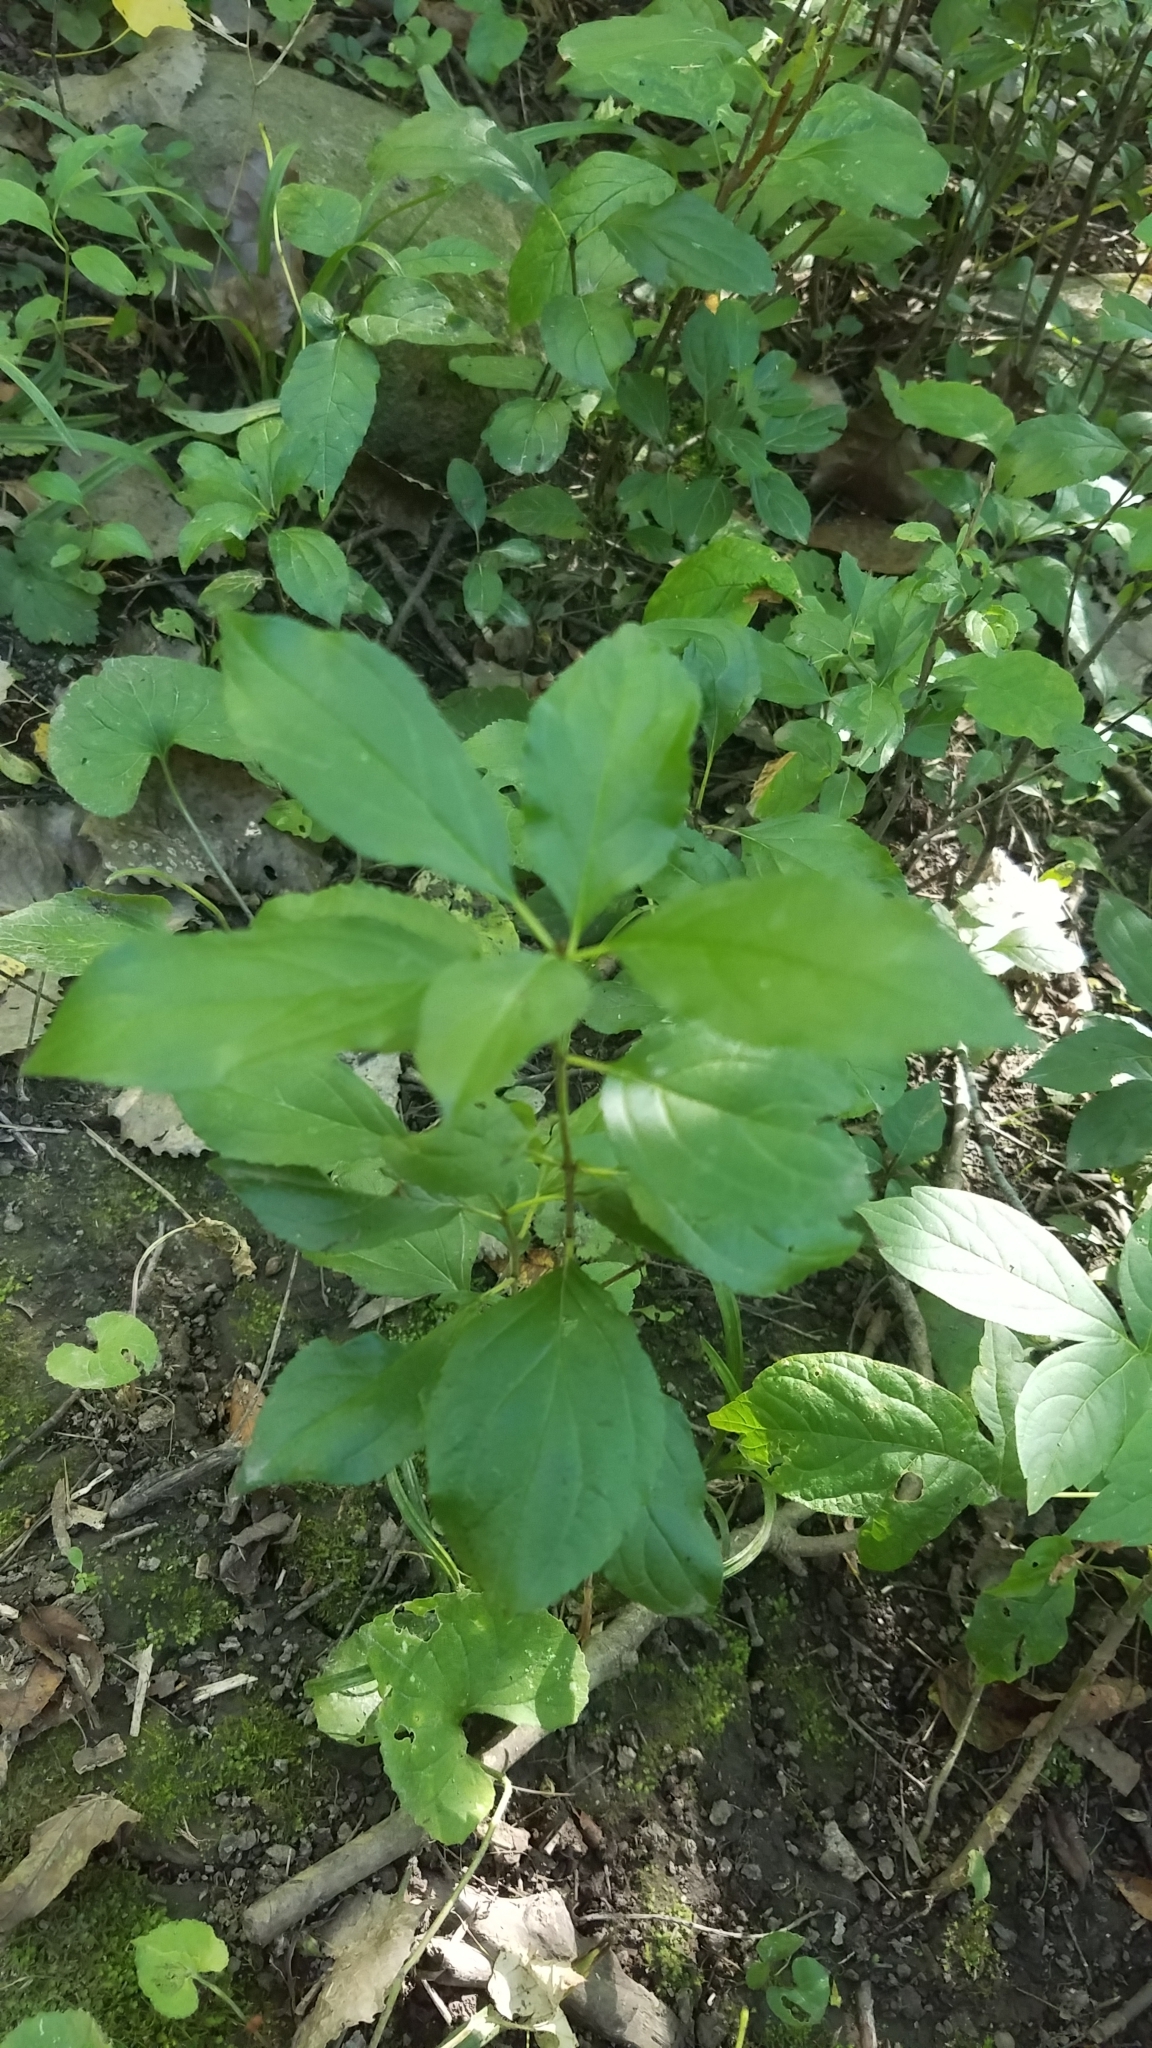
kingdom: Plantae
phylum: Tracheophyta
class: Magnoliopsida
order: Rosales
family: Rhamnaceae
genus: Rhamnus
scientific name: Rhamnus cathartica
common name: Common buckthorn
